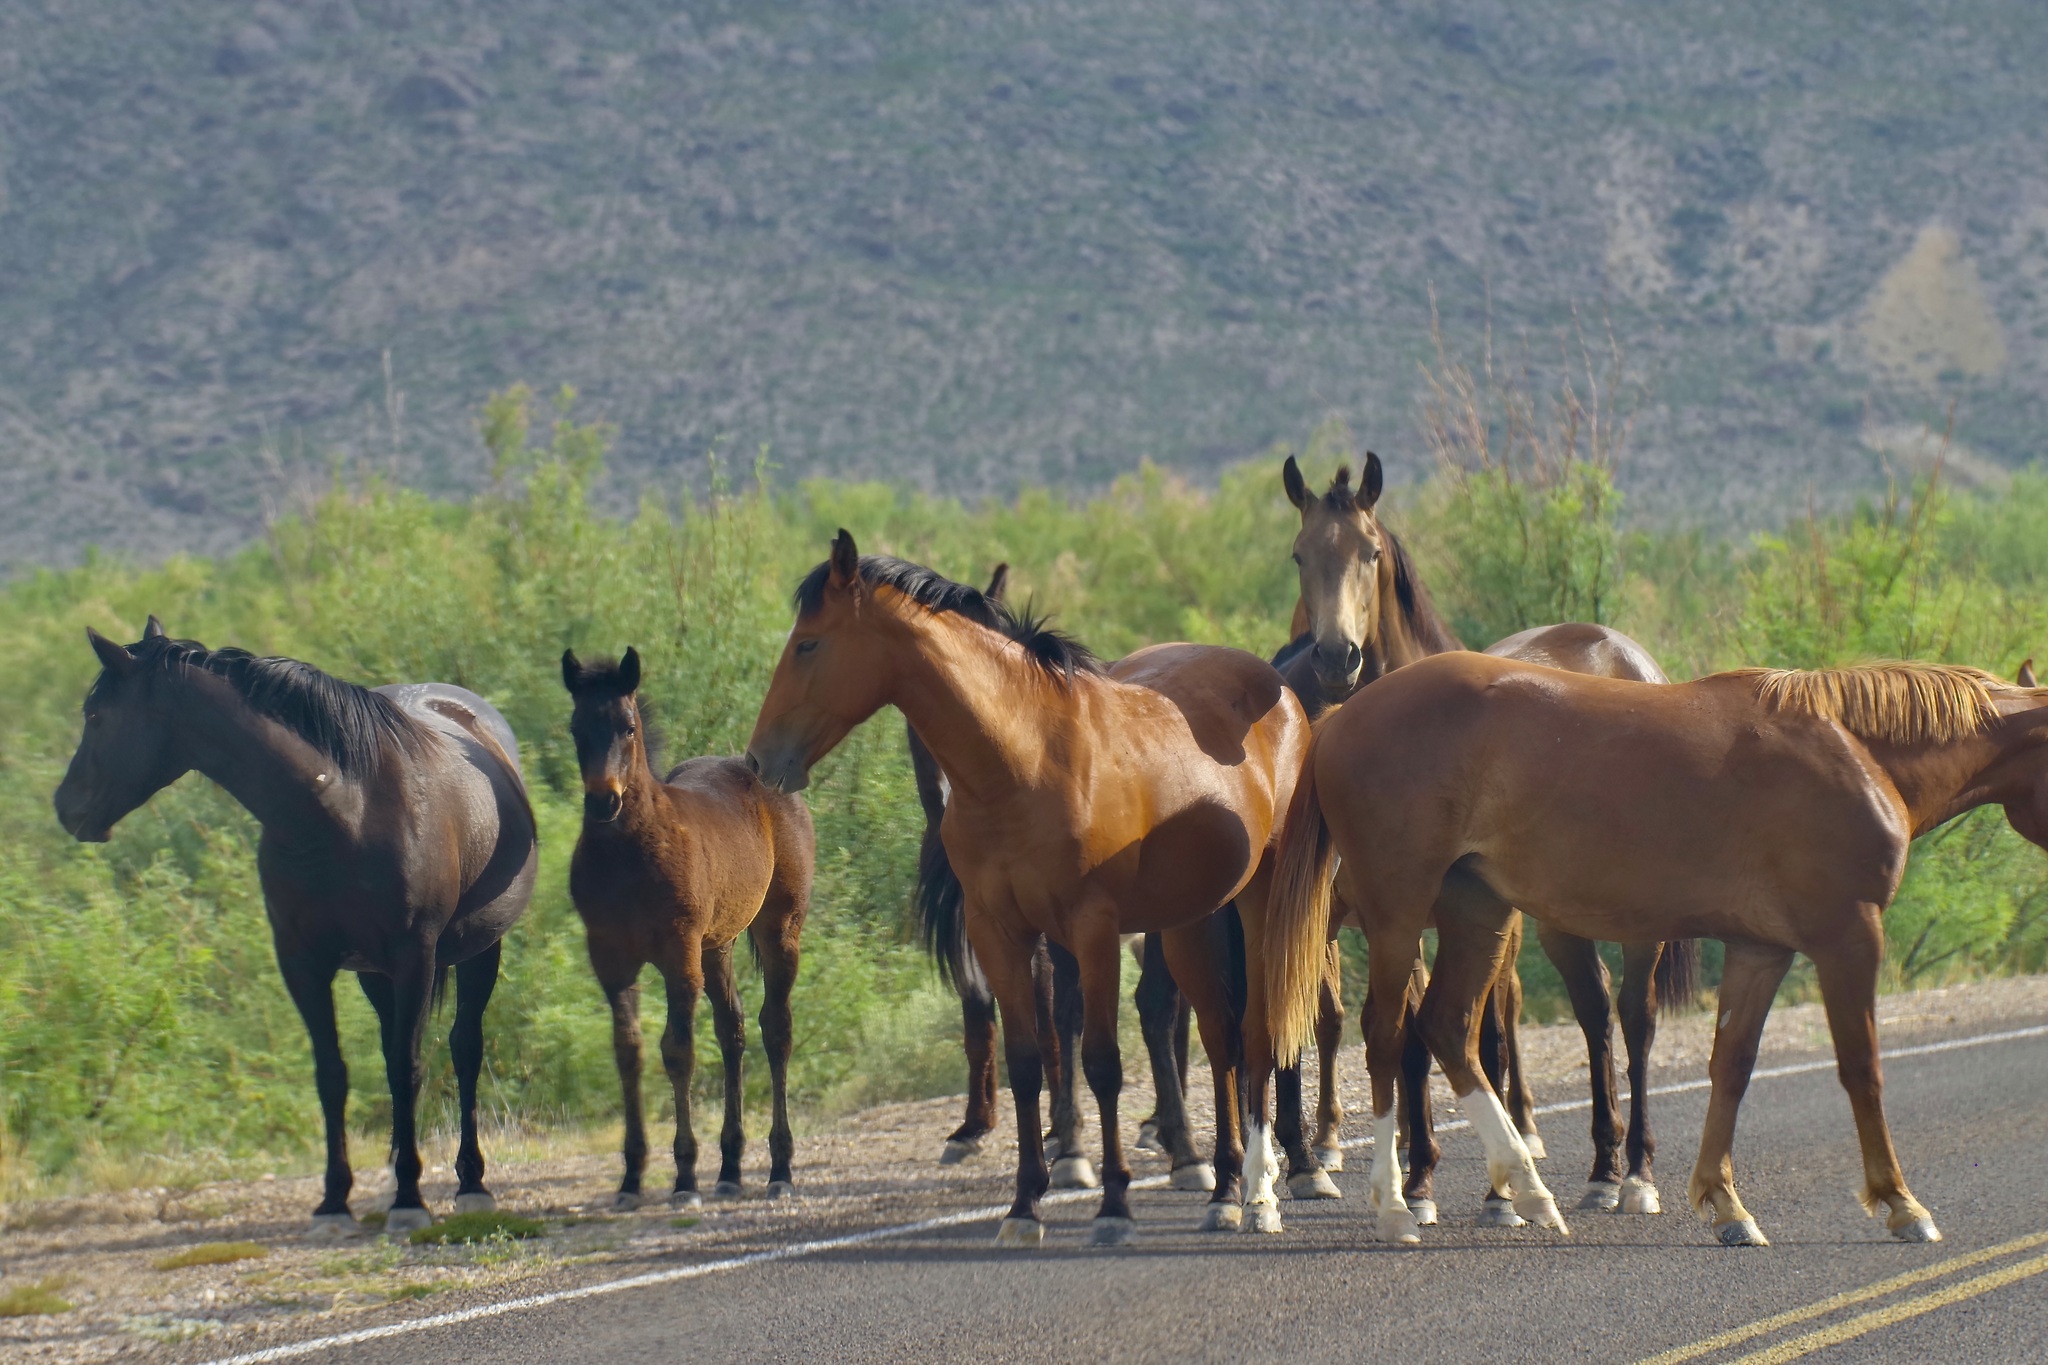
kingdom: Animalia
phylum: Chordata
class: Mammalia
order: Perissodactyla
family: Equidae
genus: Equus
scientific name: Equus caballus
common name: Horse
